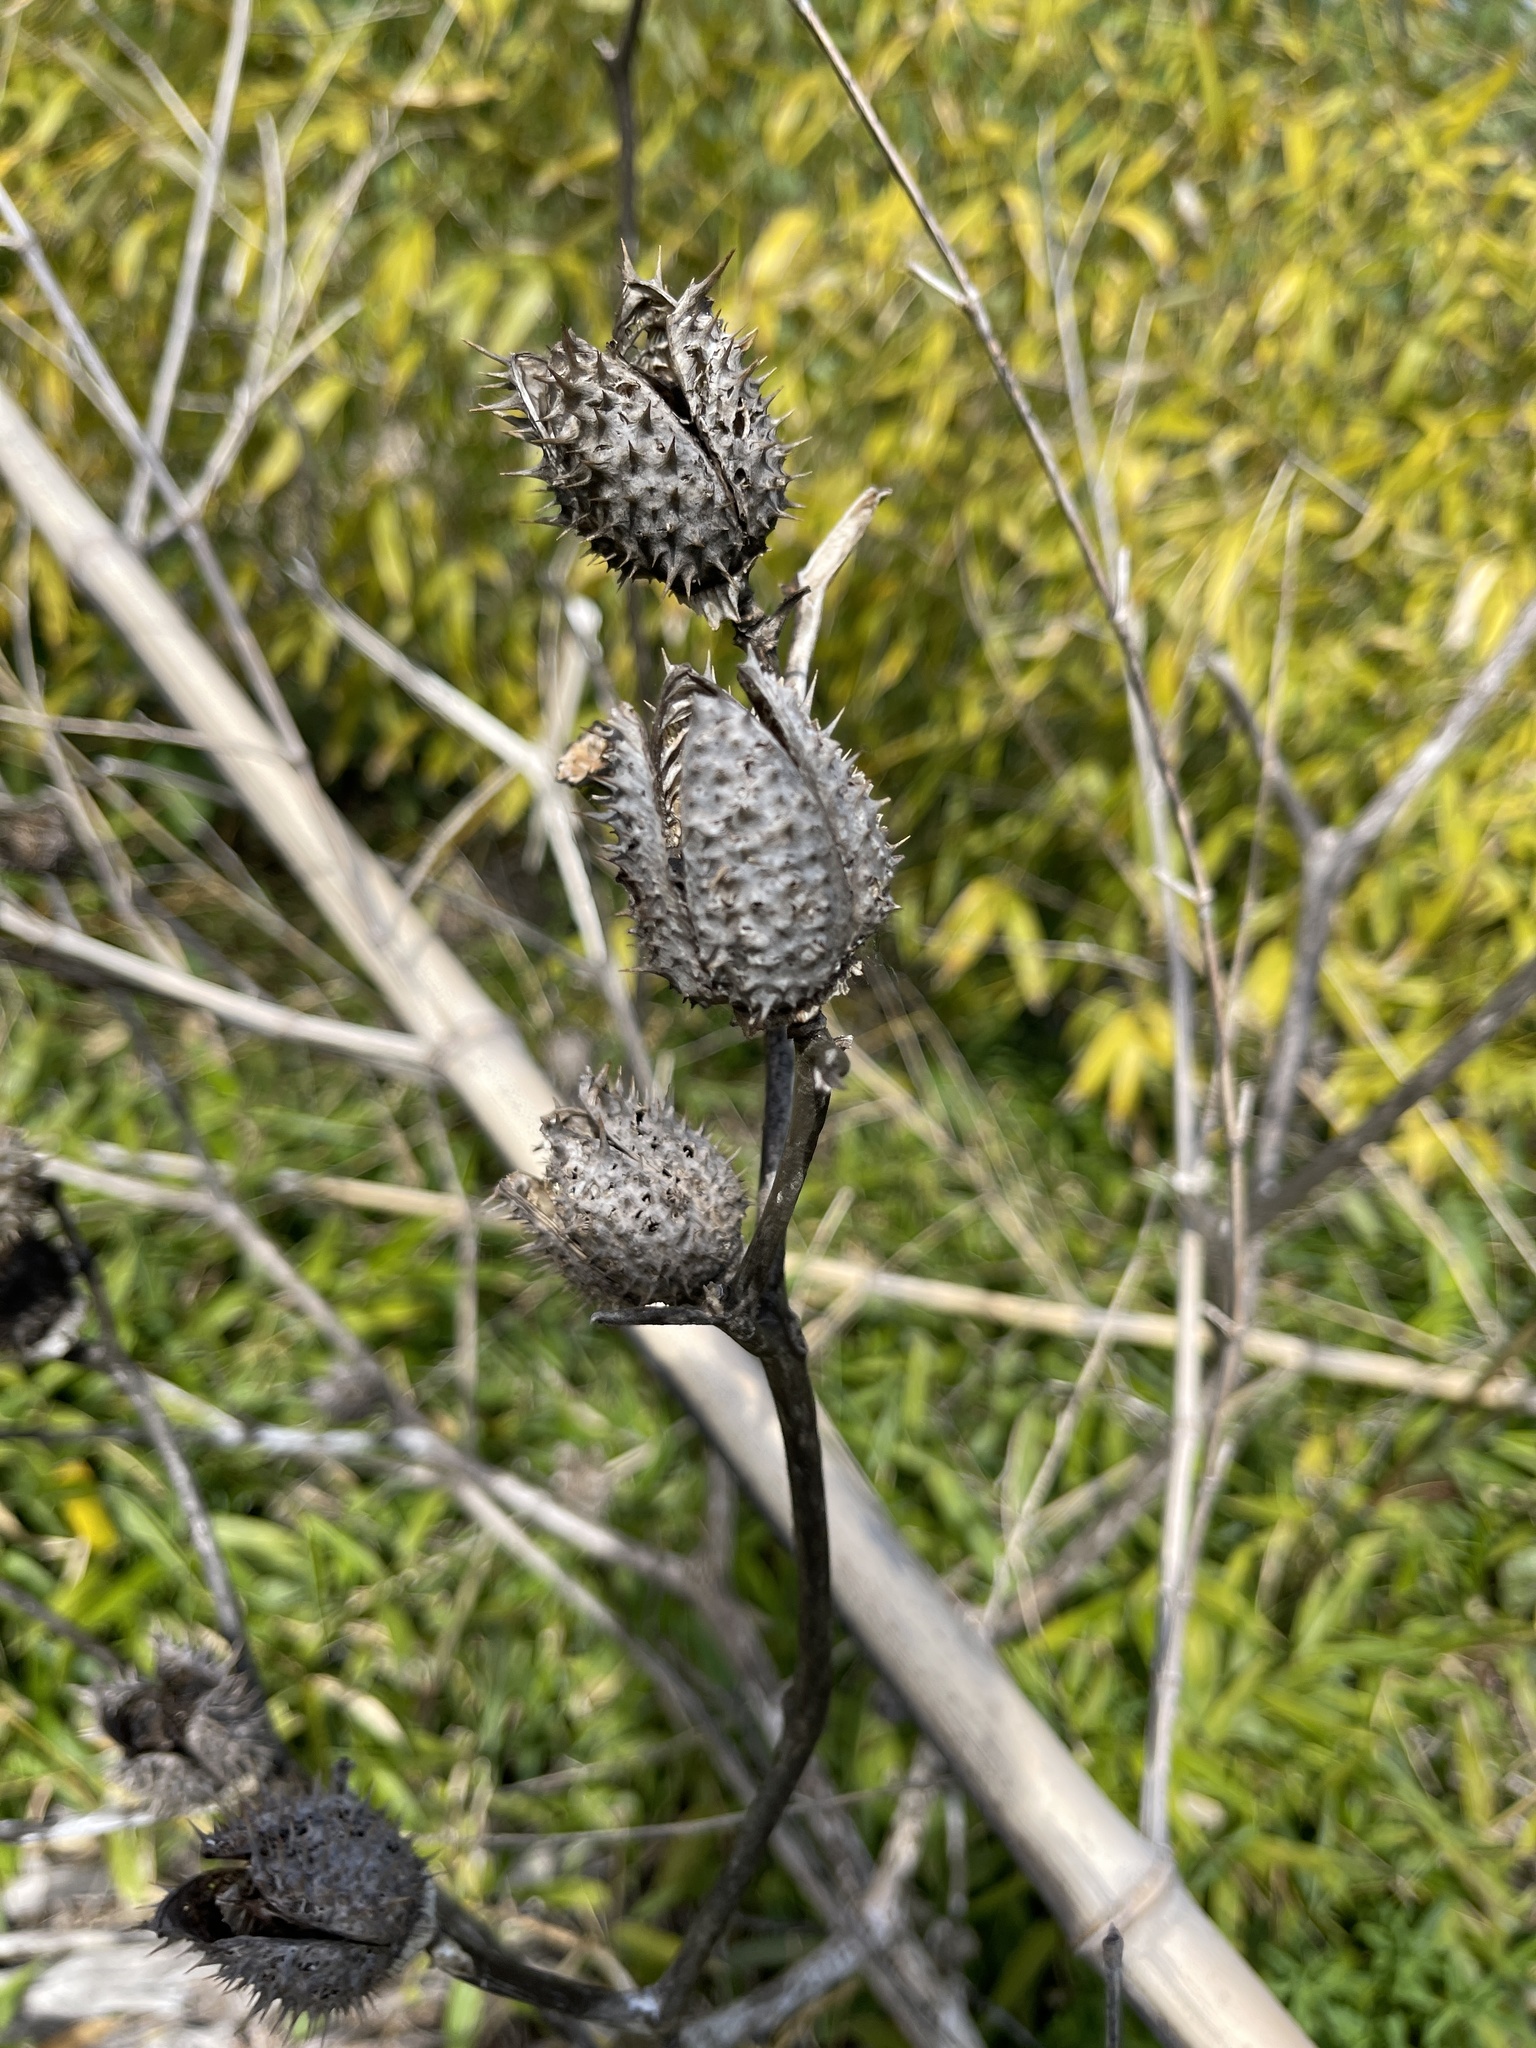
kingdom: Plantae
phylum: Tracheophyta
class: Magnoliopsida
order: Solanales
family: Solanaceae
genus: Datura
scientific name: Datura stramonium
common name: Thorn-apple
